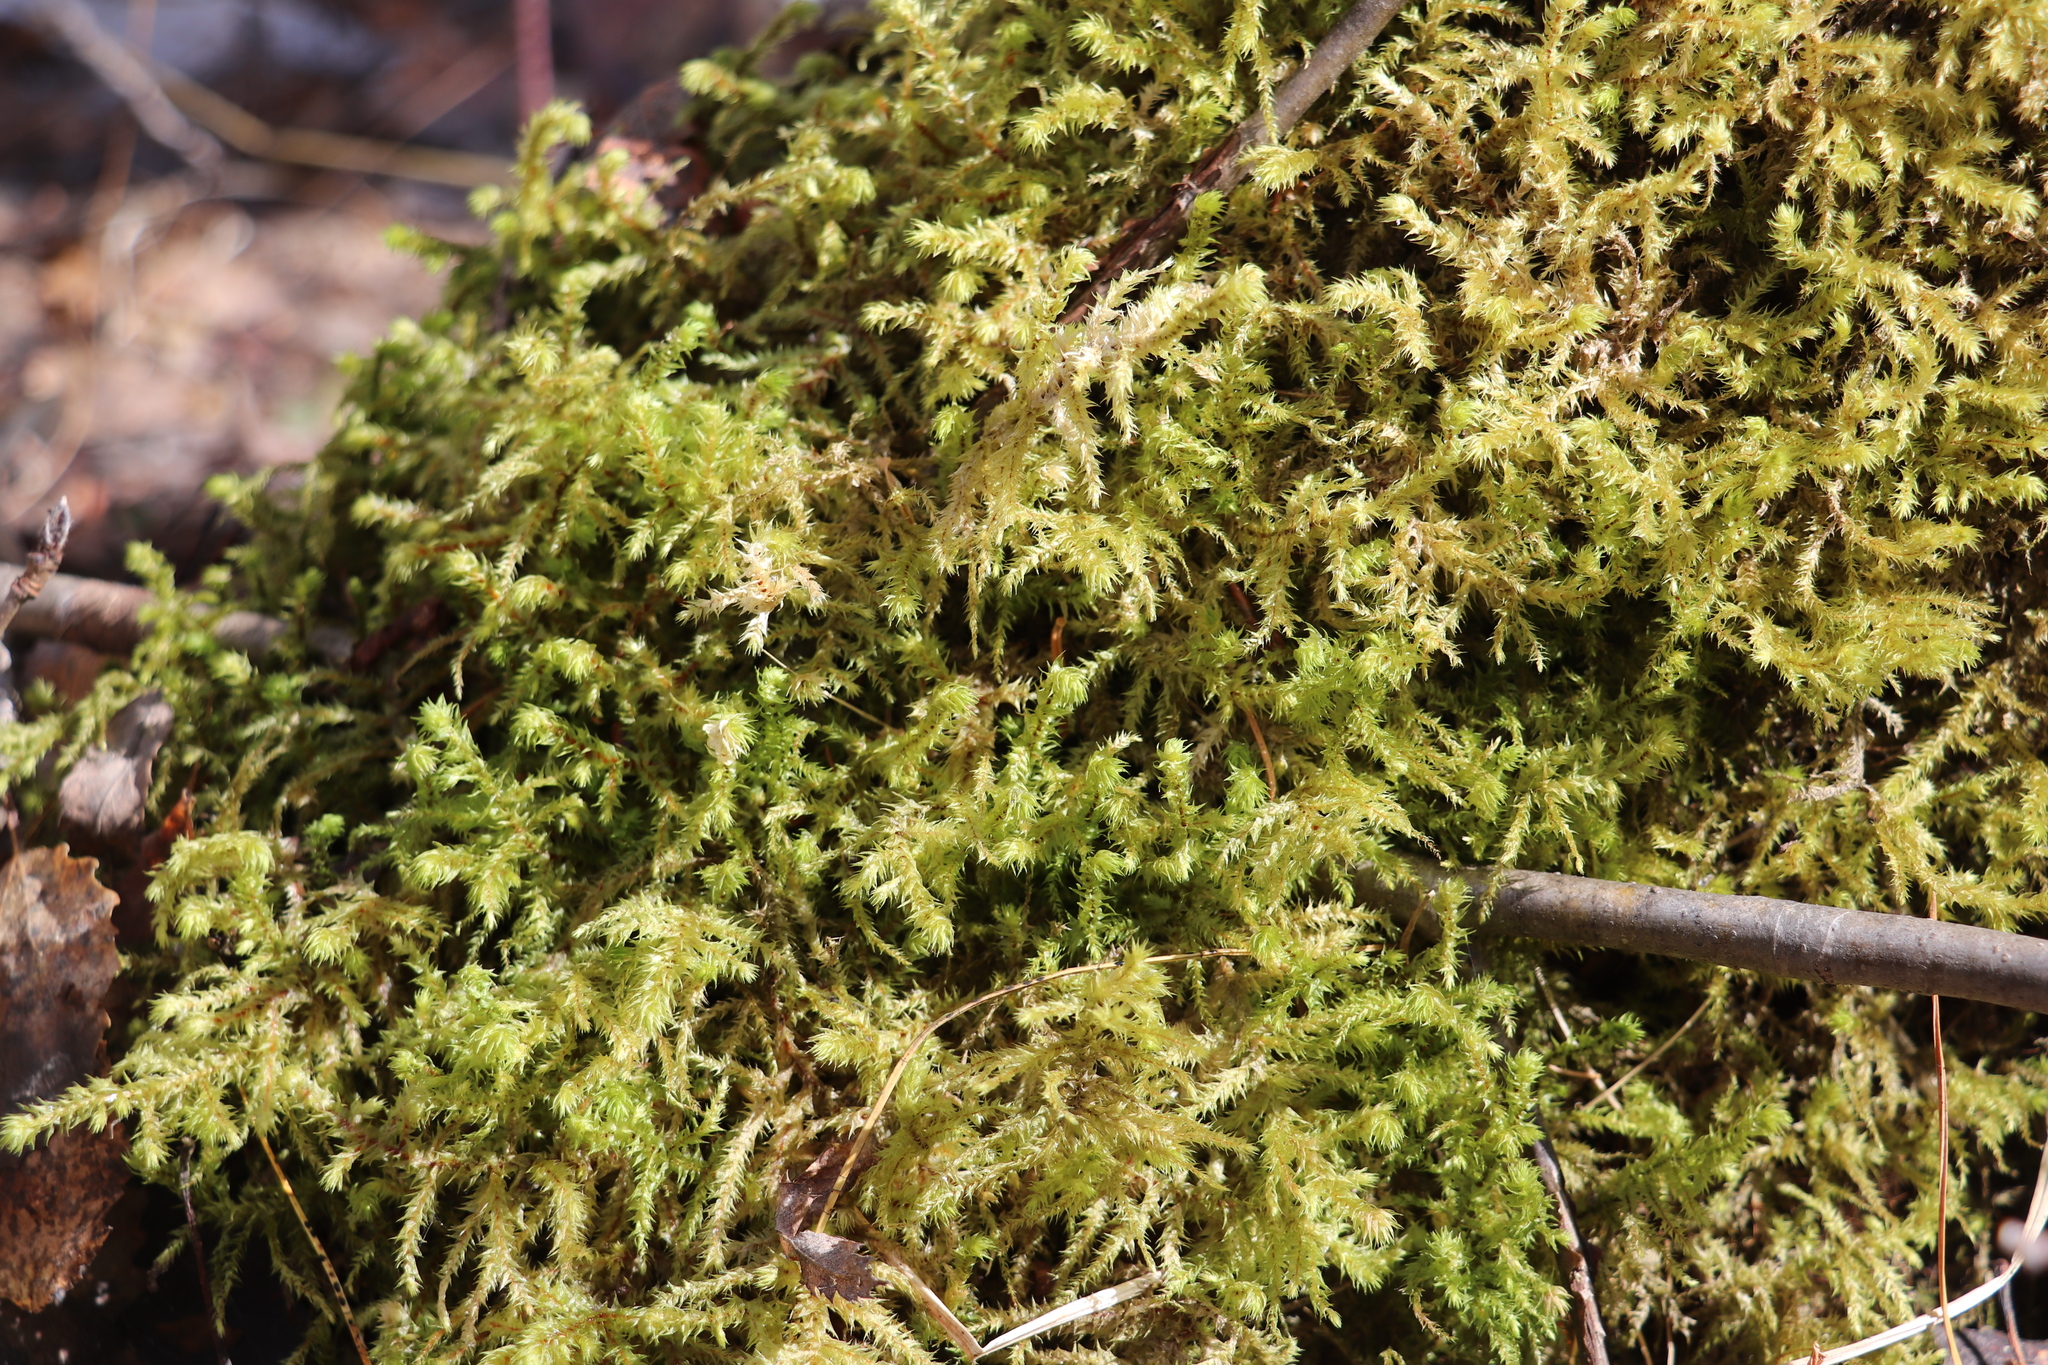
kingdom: Plantae
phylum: Bryophyta
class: Bryopsida
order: Hypnales
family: Hylocomiaceae
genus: Hylocomiadelphus
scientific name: Hylocomiadelphus triquetrus
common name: Rough goose neck moss
